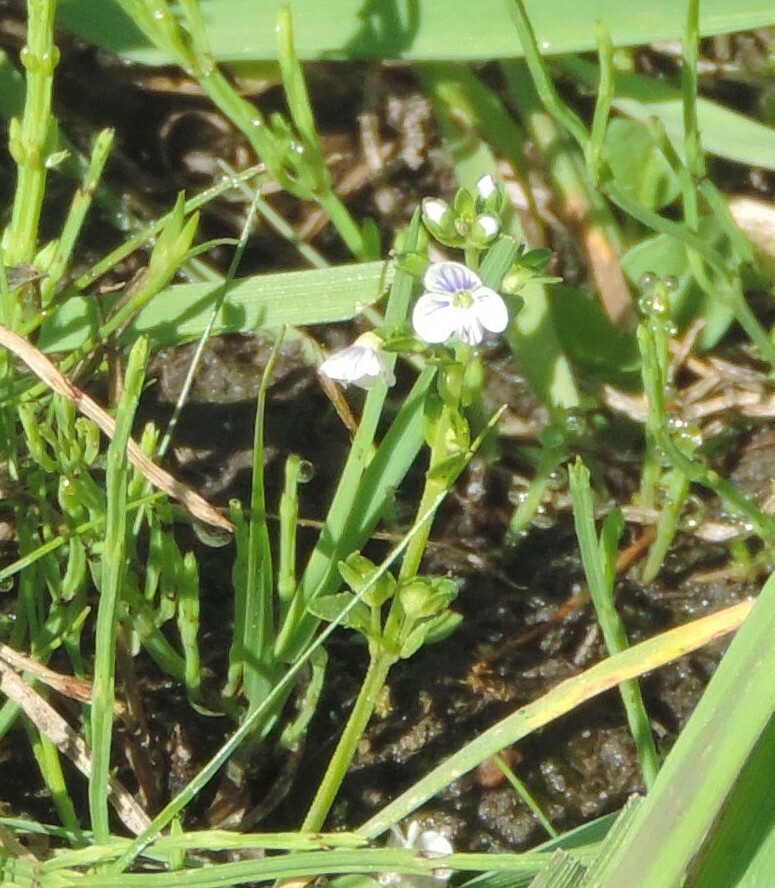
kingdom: Plantae
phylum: Tracheophyta
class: Magnoliopsida
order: Lamiales
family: Plantaginaceae
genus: Veronica
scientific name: Veronica serpyllifolia
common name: Thyme-leaved speedwell
